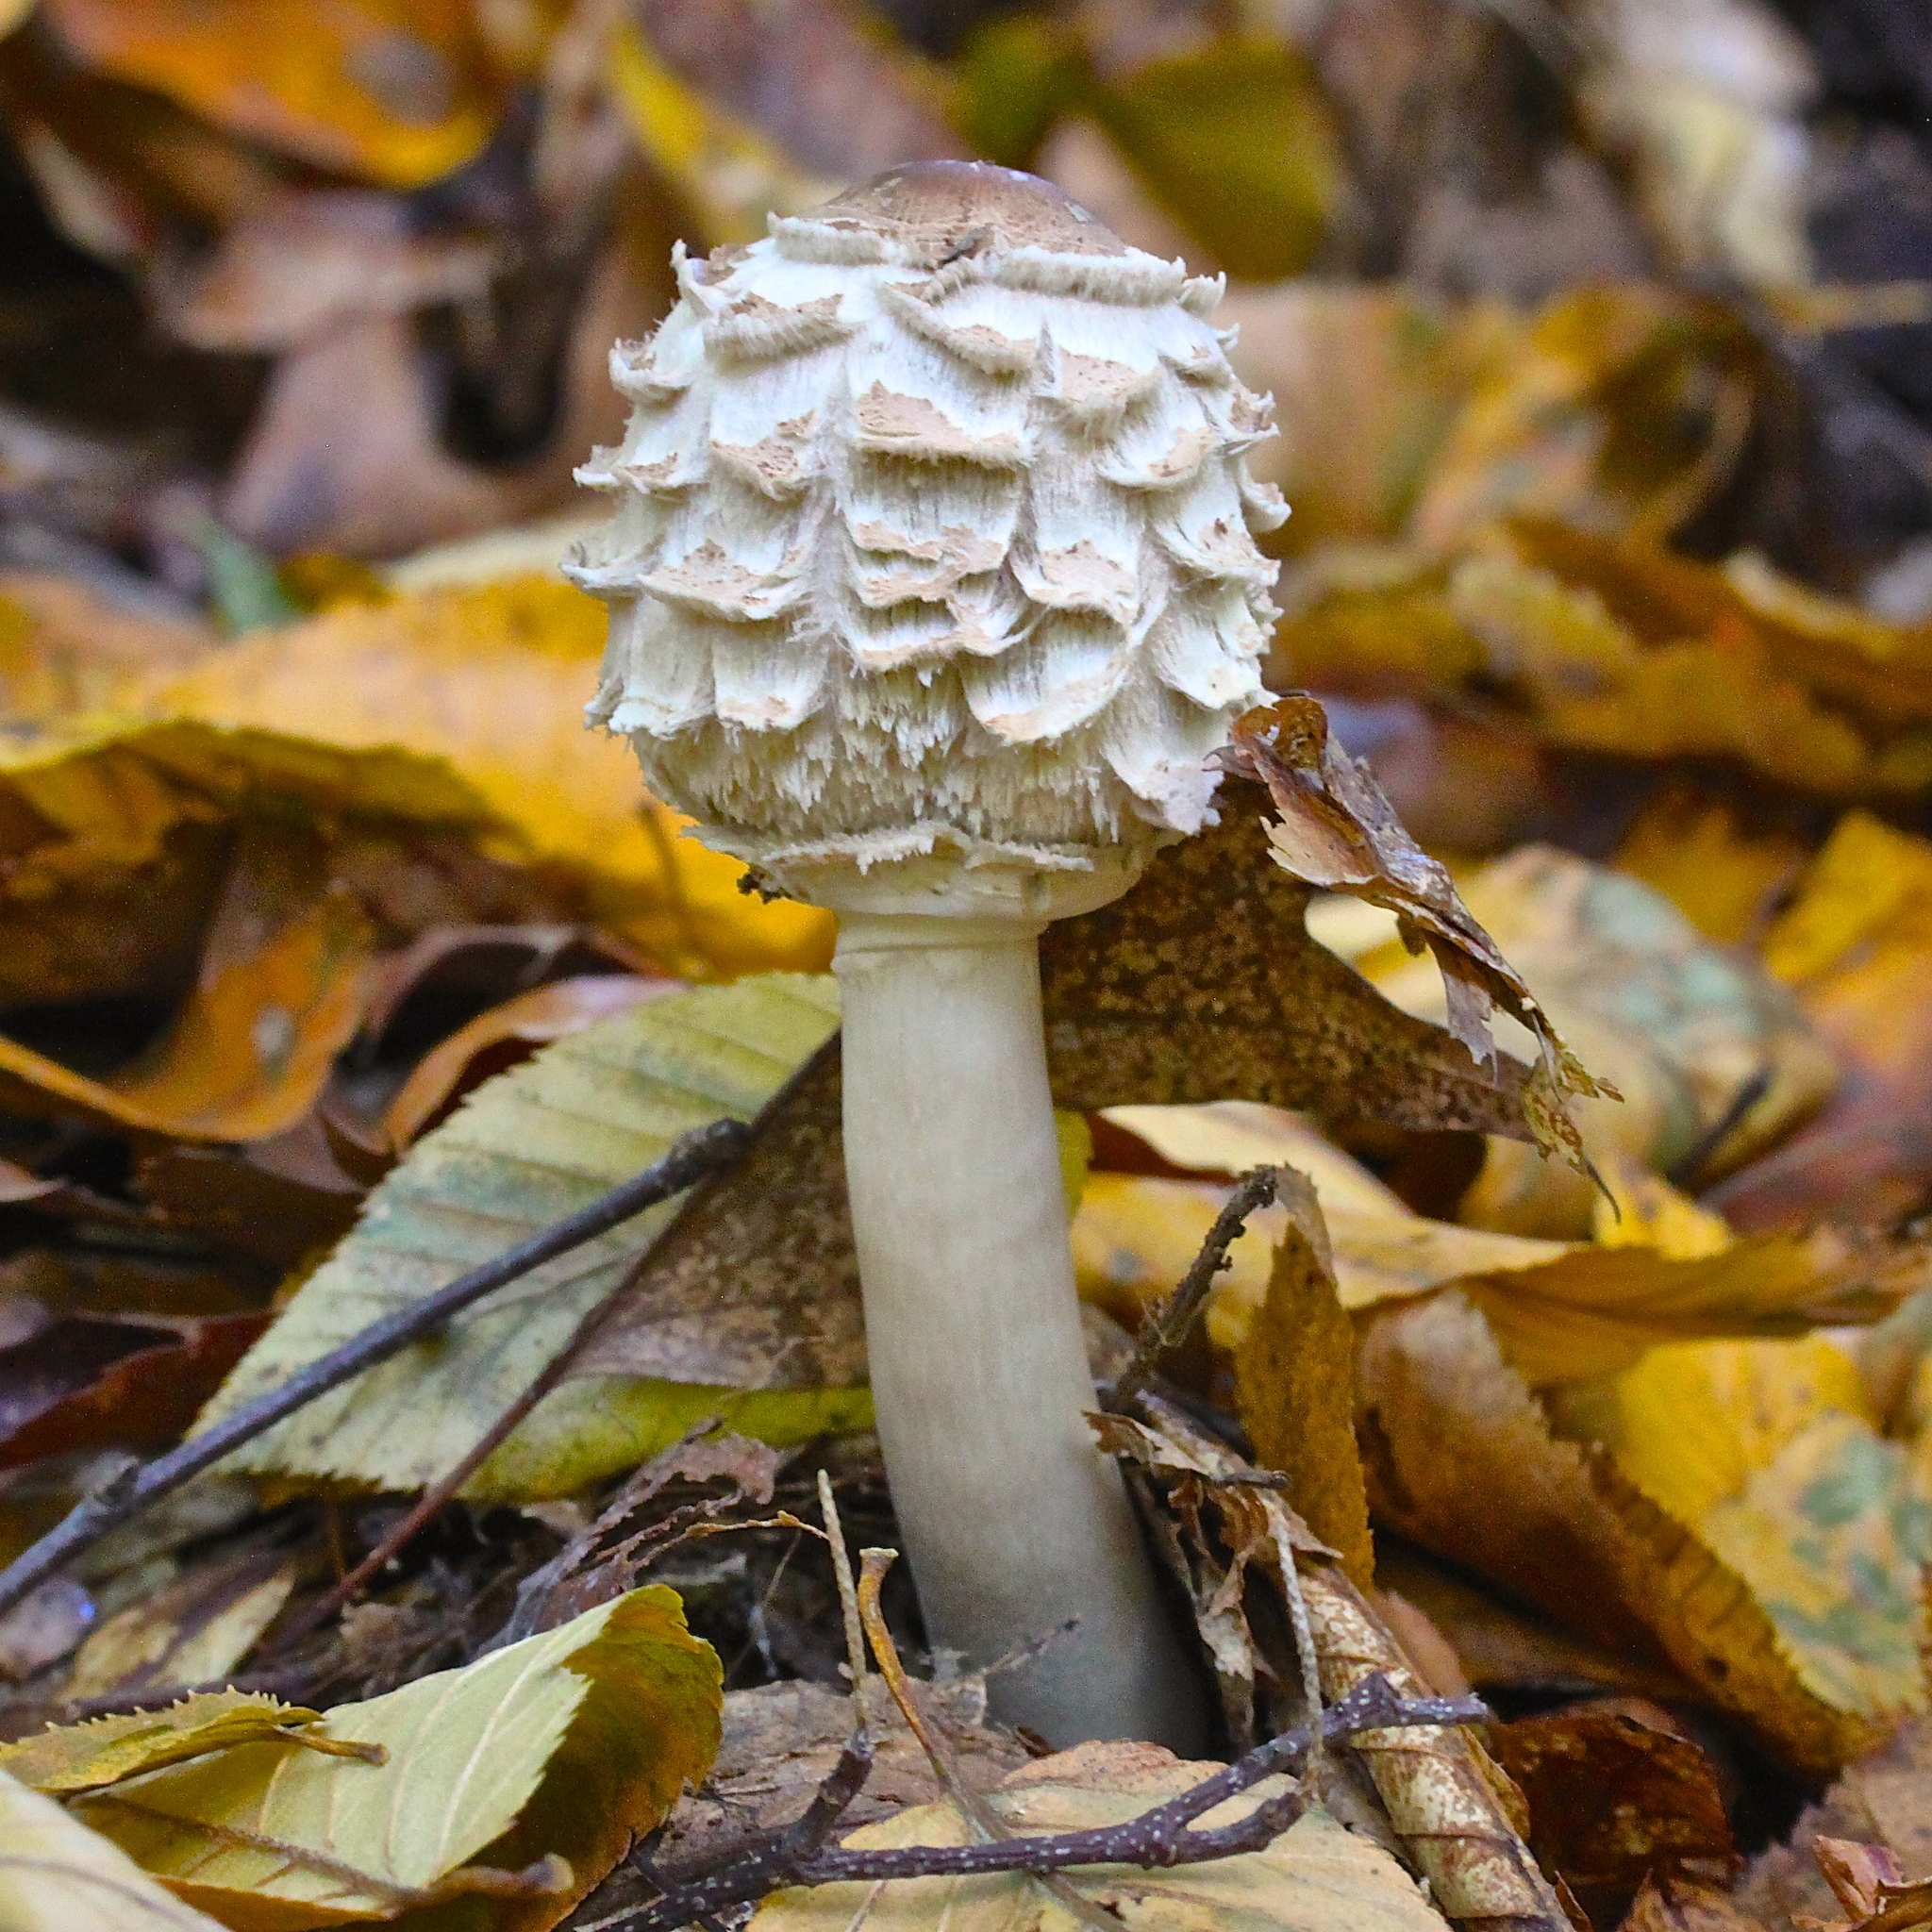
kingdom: Fungi
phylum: Basidiomycota
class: Agaricomycetes
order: Agaricales
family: Agaricaceae
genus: Chlorophyllum
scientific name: Chlorophyllum rhacodes
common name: Shaggy parasol
